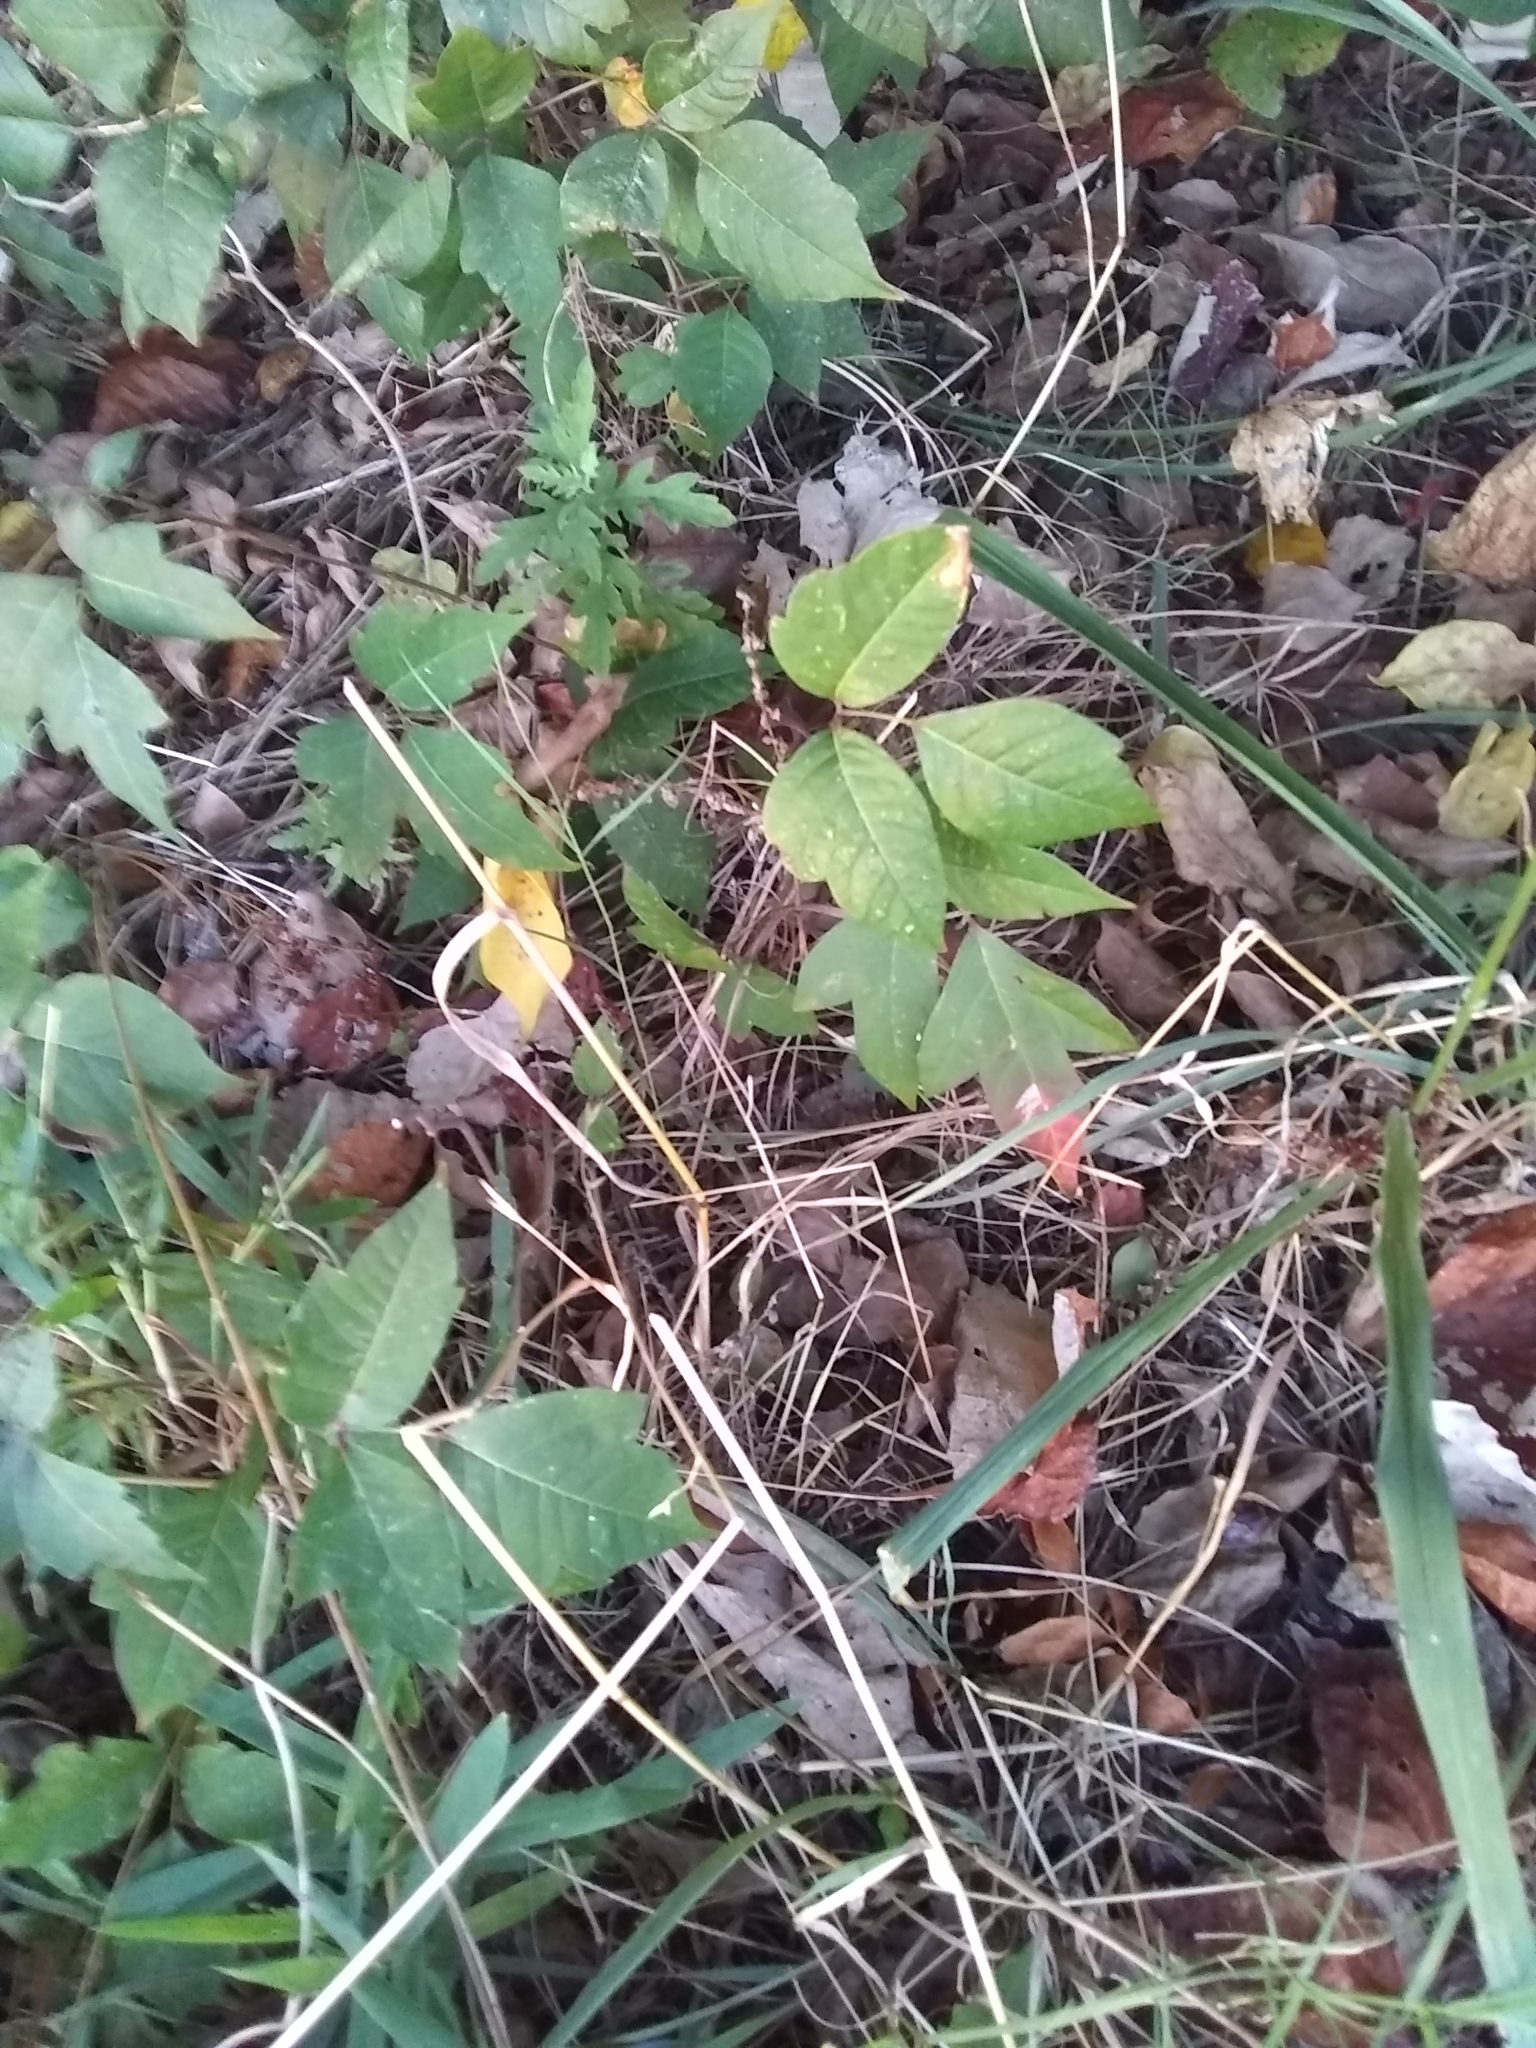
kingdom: Plantae
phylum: Tracheophyta
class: Magnoliopsida
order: Sapindales
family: Anacardiaceae
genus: Toxicodendron
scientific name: Toxicodendron radicans
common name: Poison ivy
